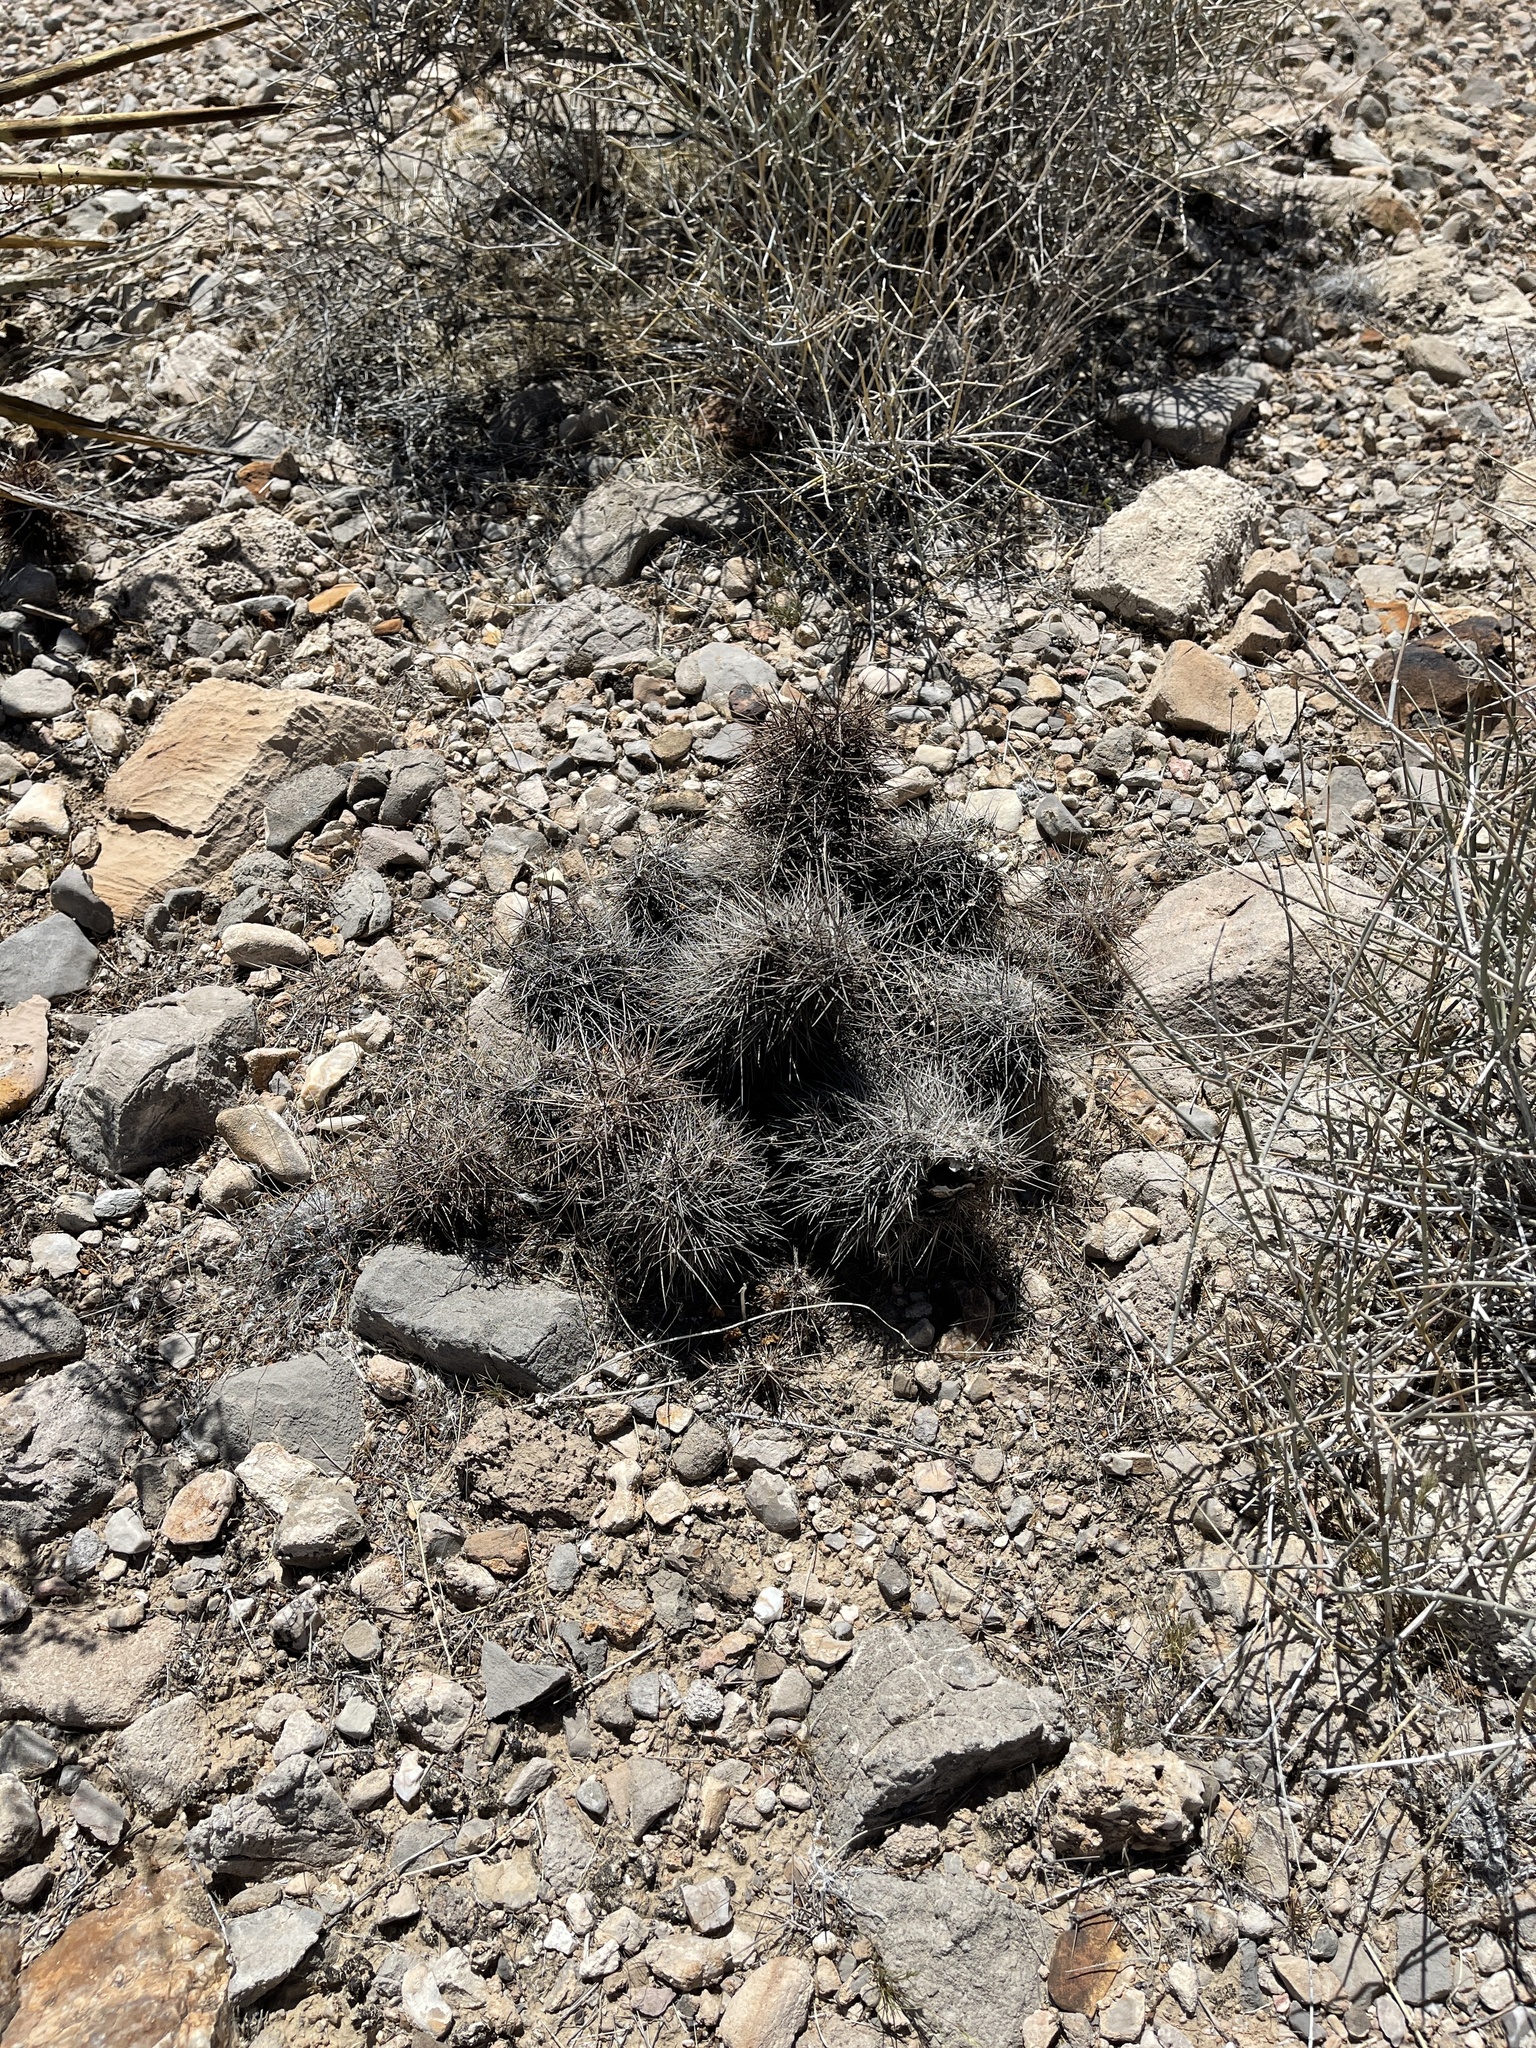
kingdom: Plantae
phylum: Tracheophyta
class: Magnoliopsida
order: Caryophyllales
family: Cactaceae
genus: Echinocereus
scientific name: Echinocereus engelmannii
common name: Engelmann's hedgehog cactus
